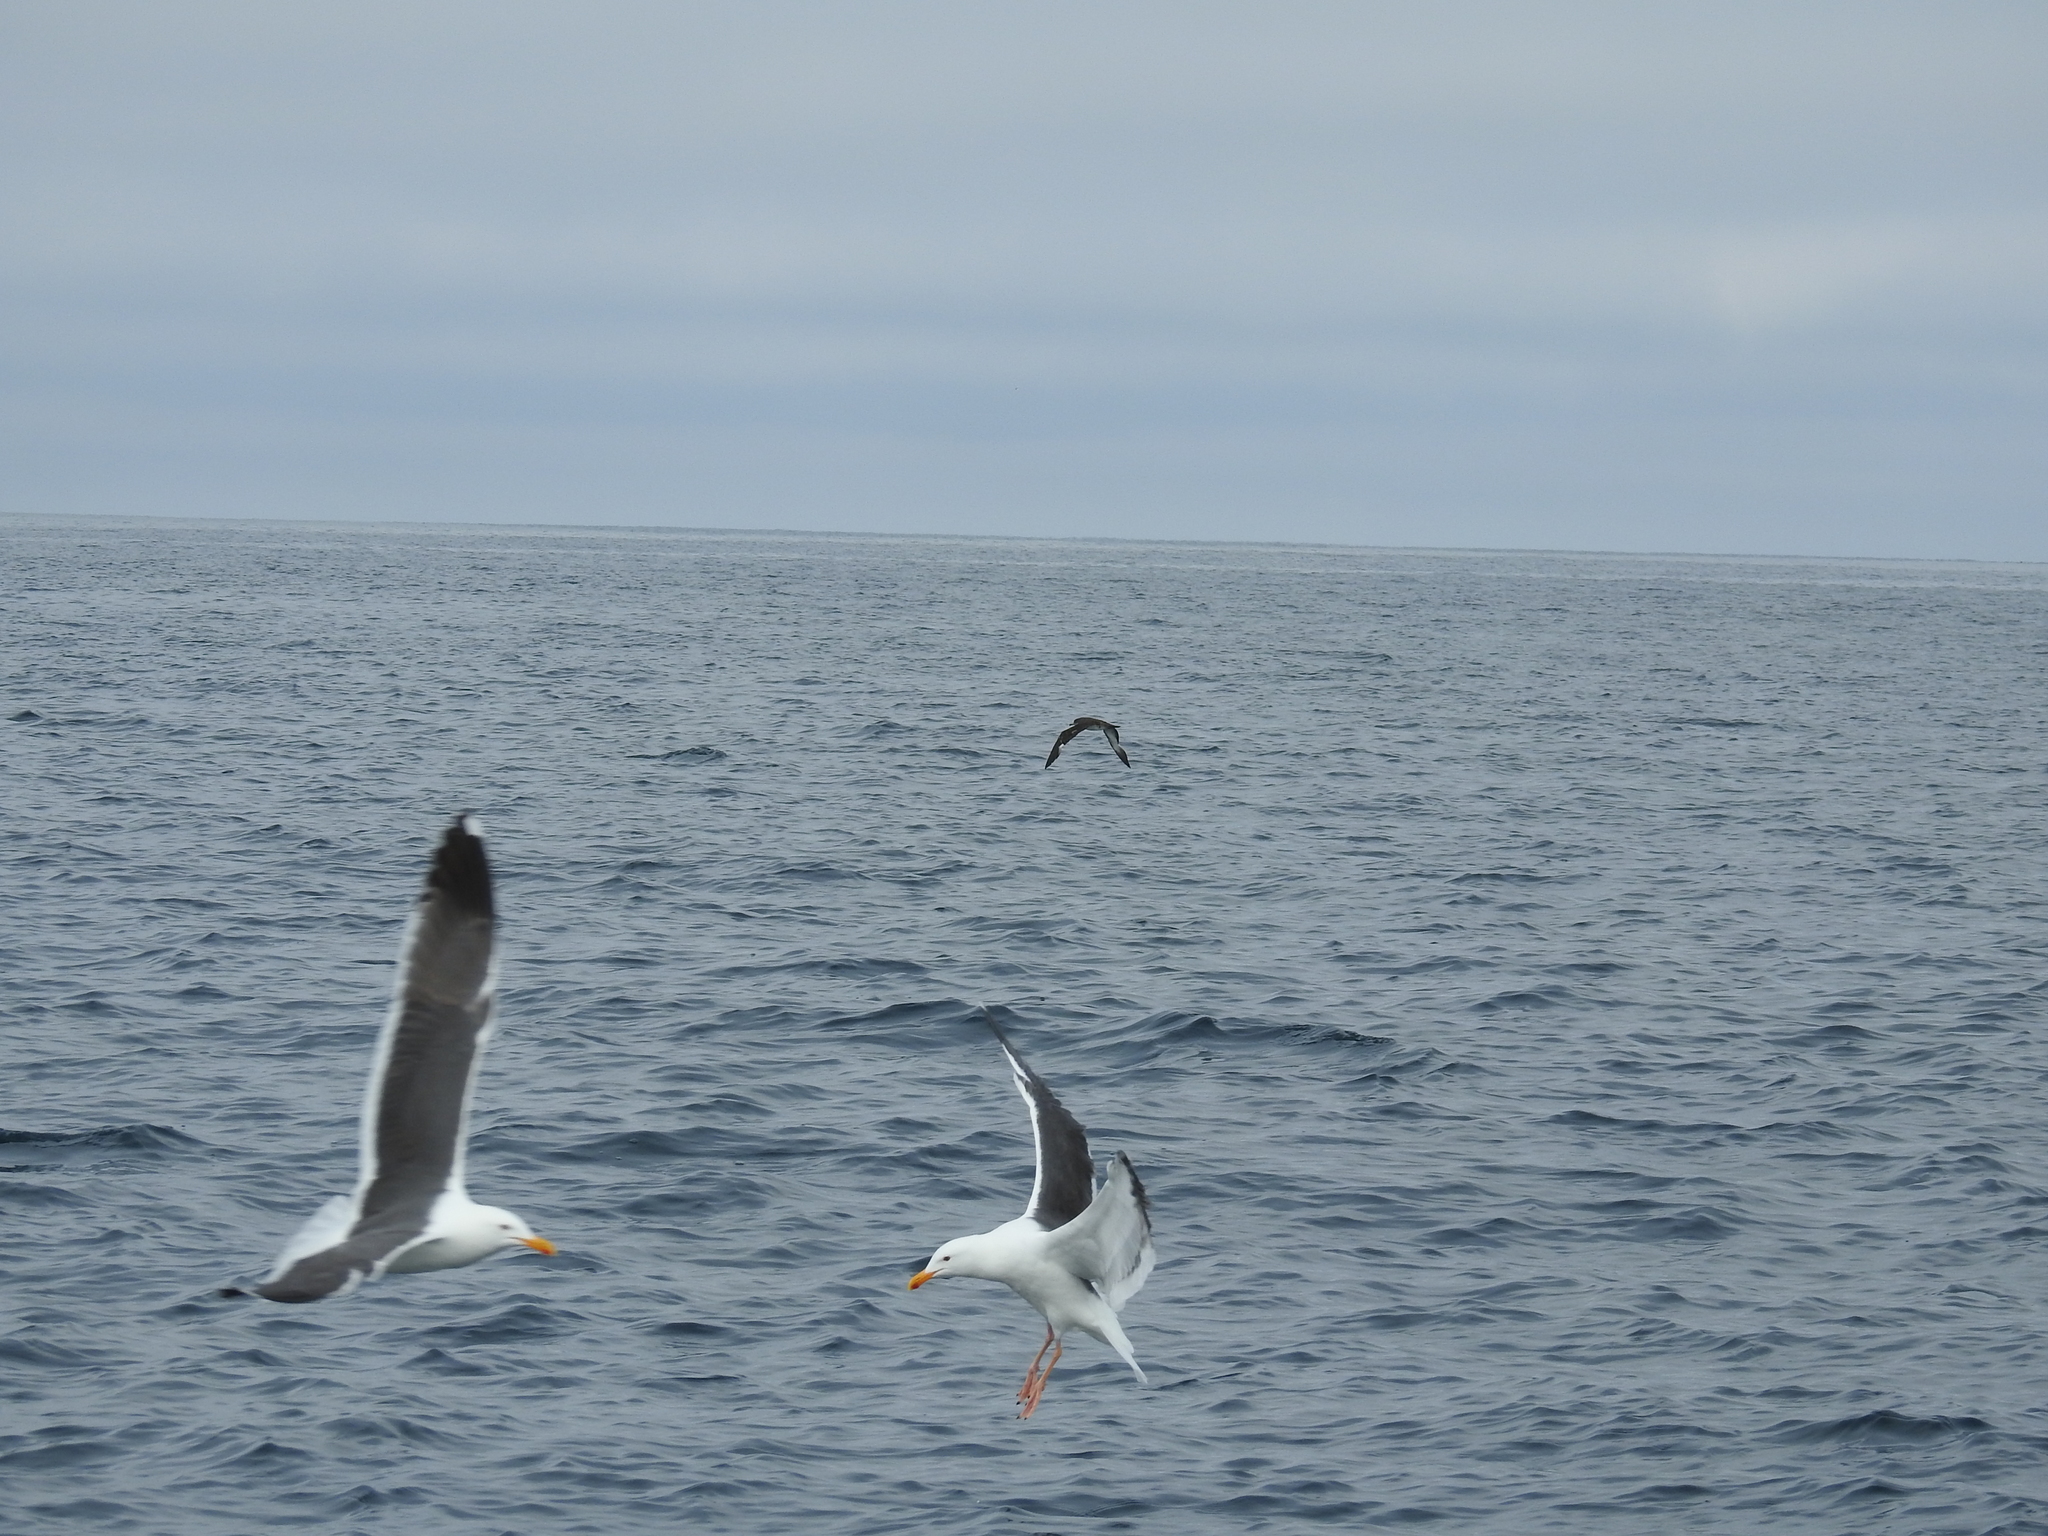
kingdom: Animalia
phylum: Chordata
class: Aves
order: Procellariiformes
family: Procellariidae
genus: Puffinus
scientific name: Puffinus creatopus
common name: Pink-footed shearwater
